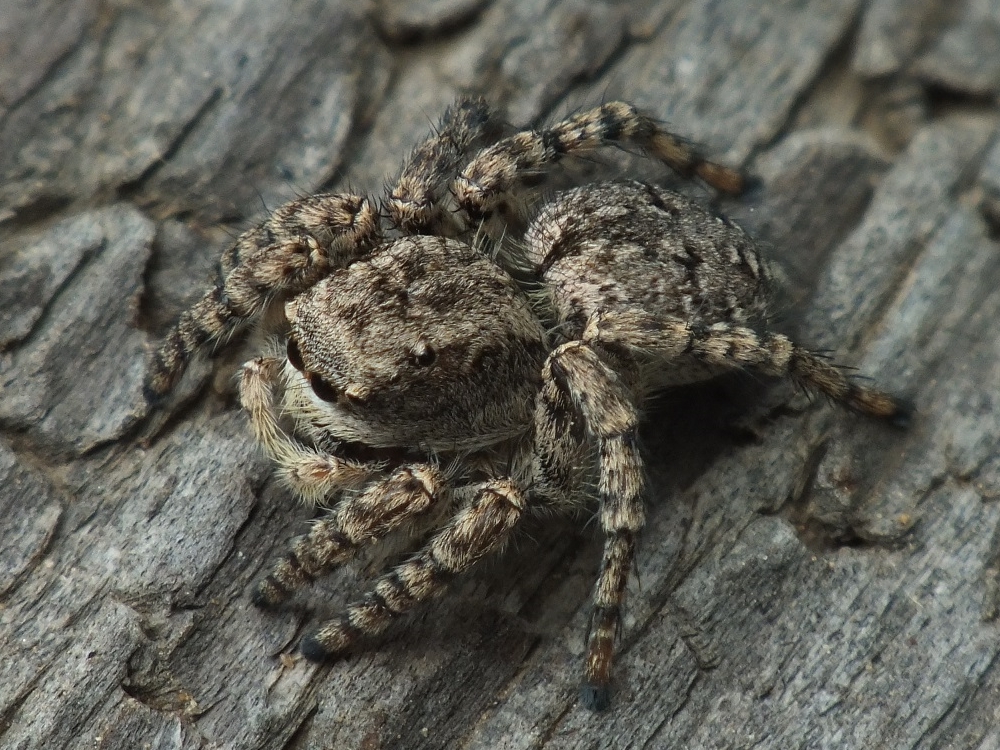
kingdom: Animalia
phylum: Arthropoda
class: Arachnida
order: Araneae
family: Salticidae
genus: Asianellus
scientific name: Asianellus festivus
